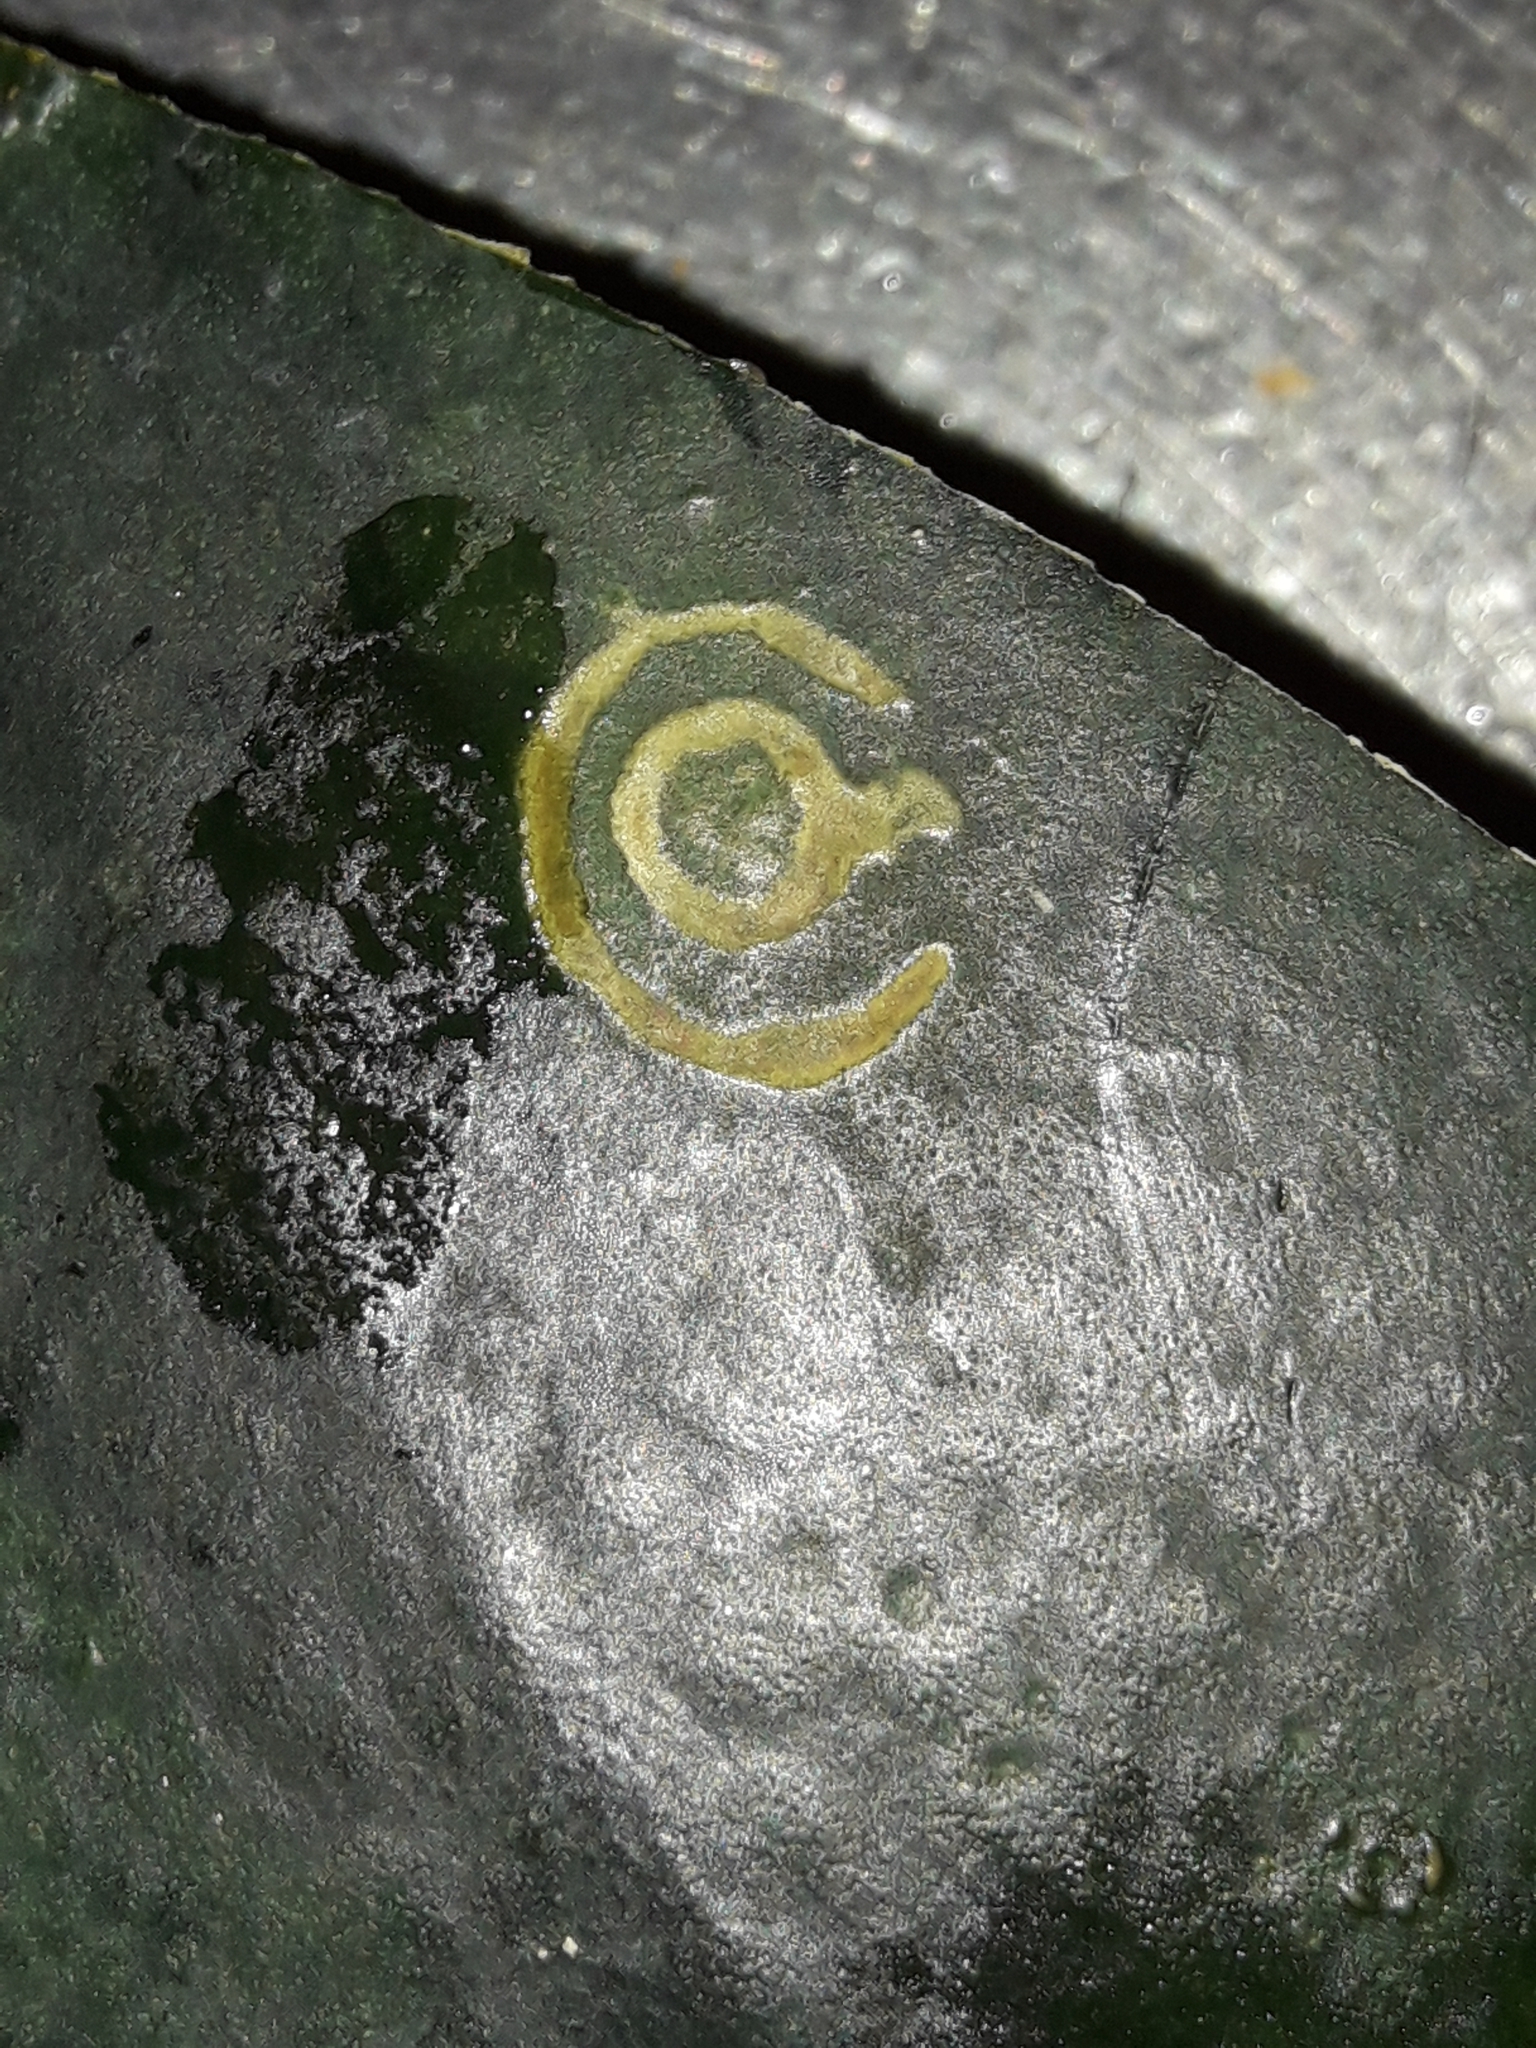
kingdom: Viruses
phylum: Pisuviricota
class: Stelpaviricetes
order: Patatavirales
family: Potyviridae
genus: Potyvirus
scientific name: Potyvirus Watermelon mosaic virus
